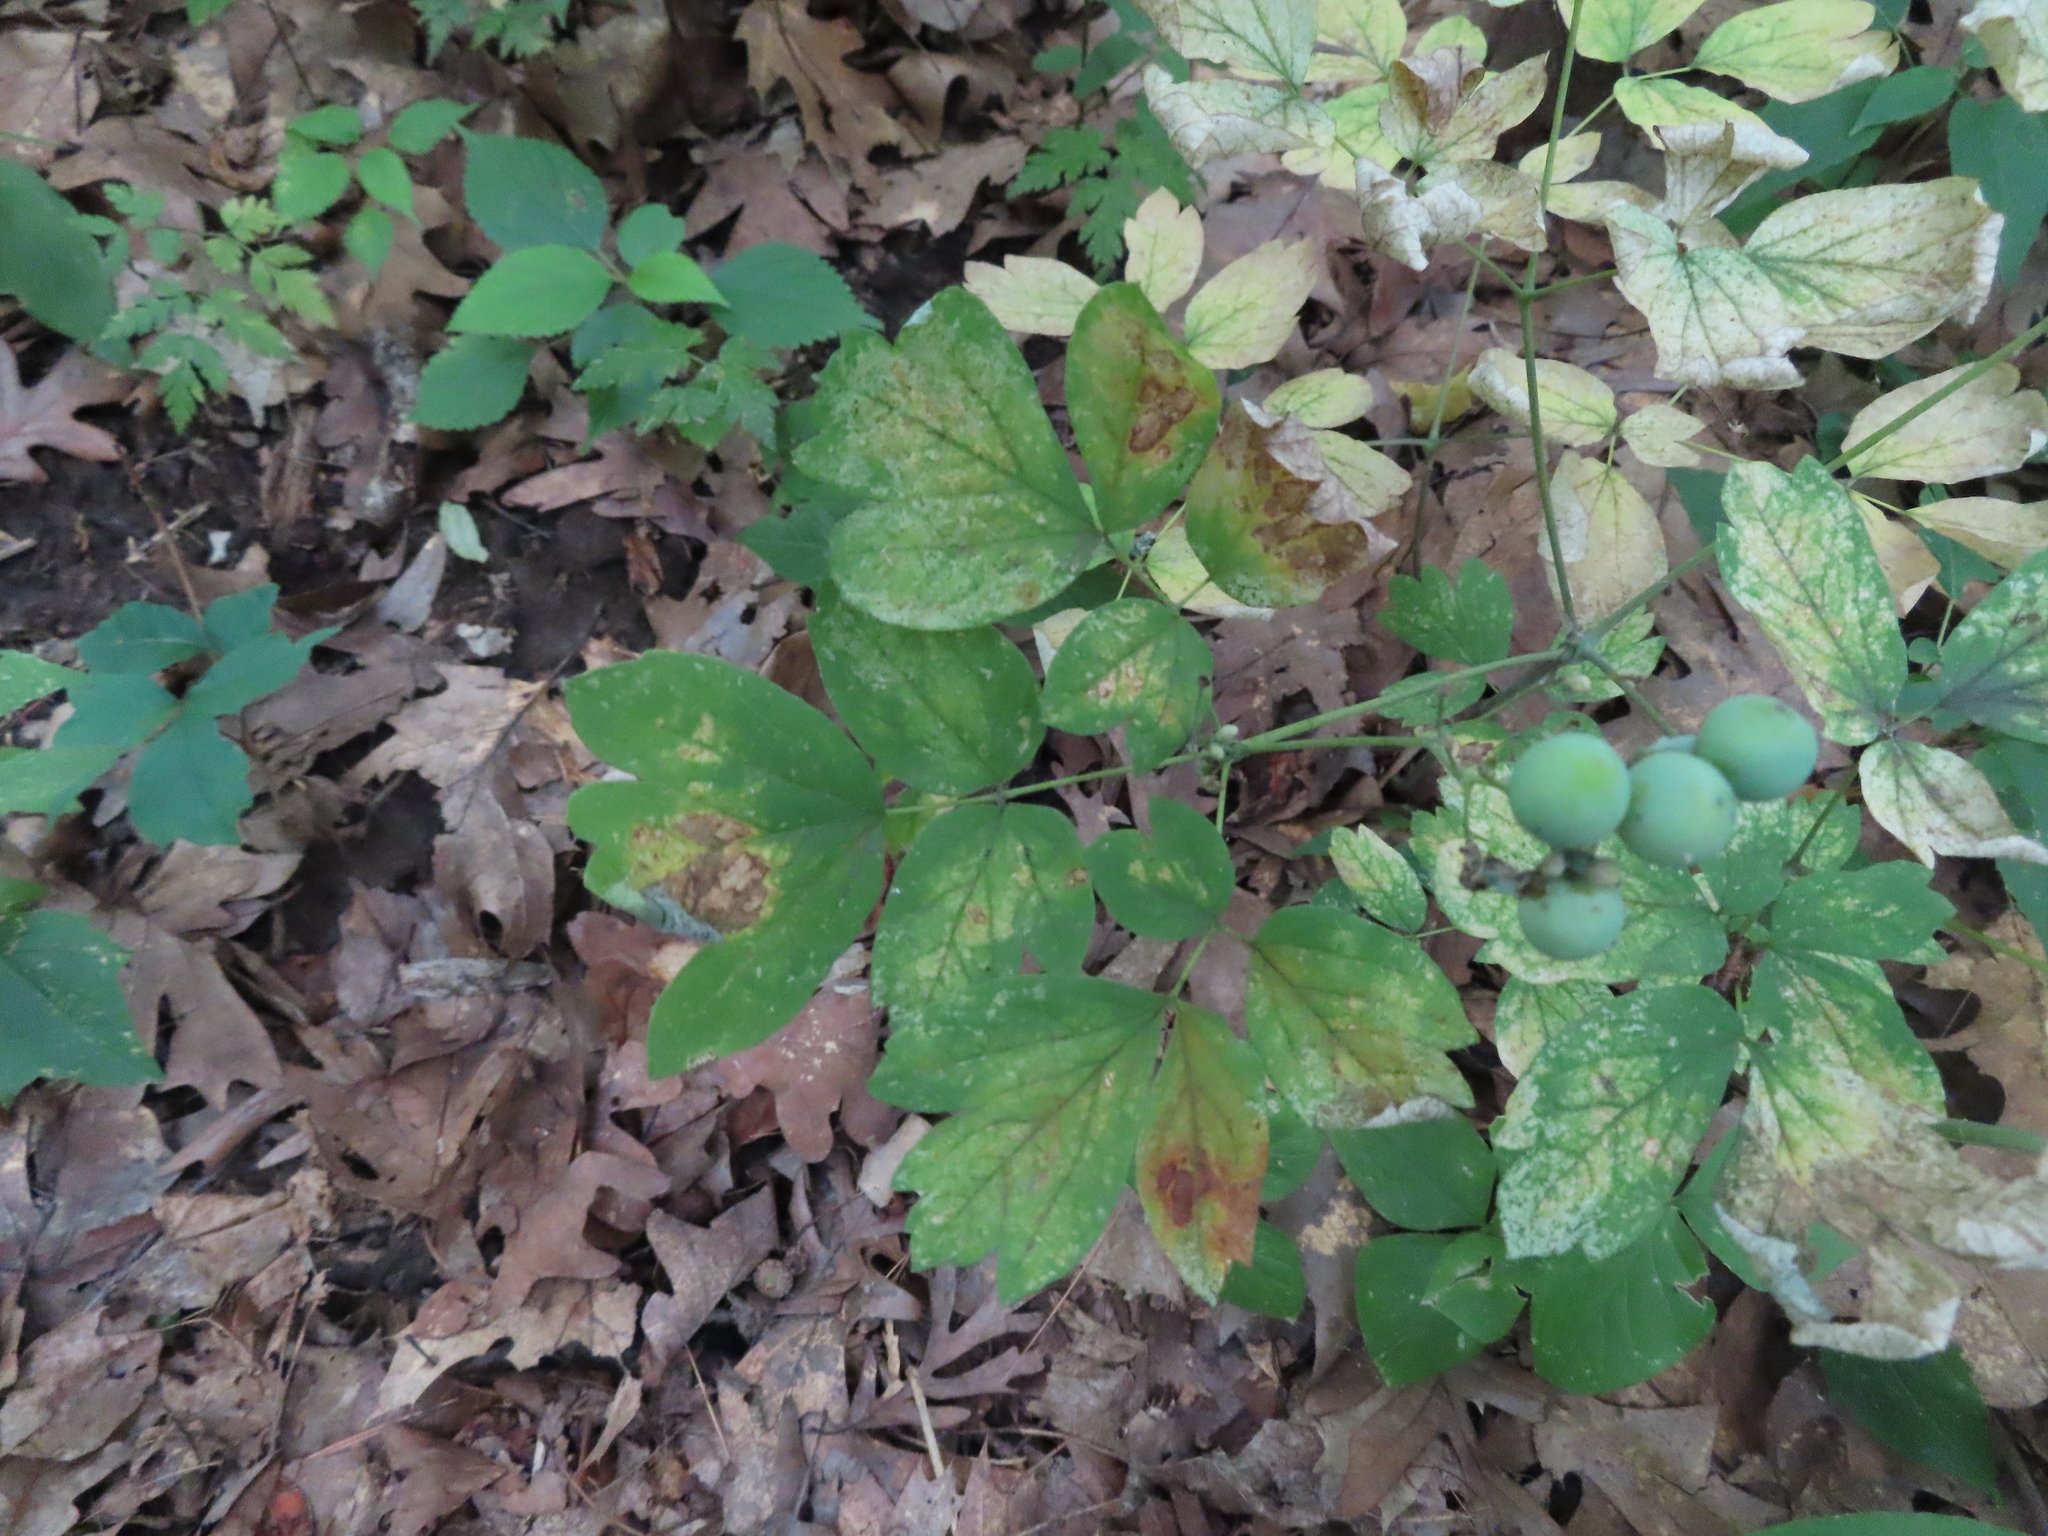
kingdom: Plantae
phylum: Tracheophyta
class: Magnoliopsida
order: Ranunculales
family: Berberidaceae
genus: Caulophyllum
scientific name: Caulophyllum thalictroides
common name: Blue cohosh
